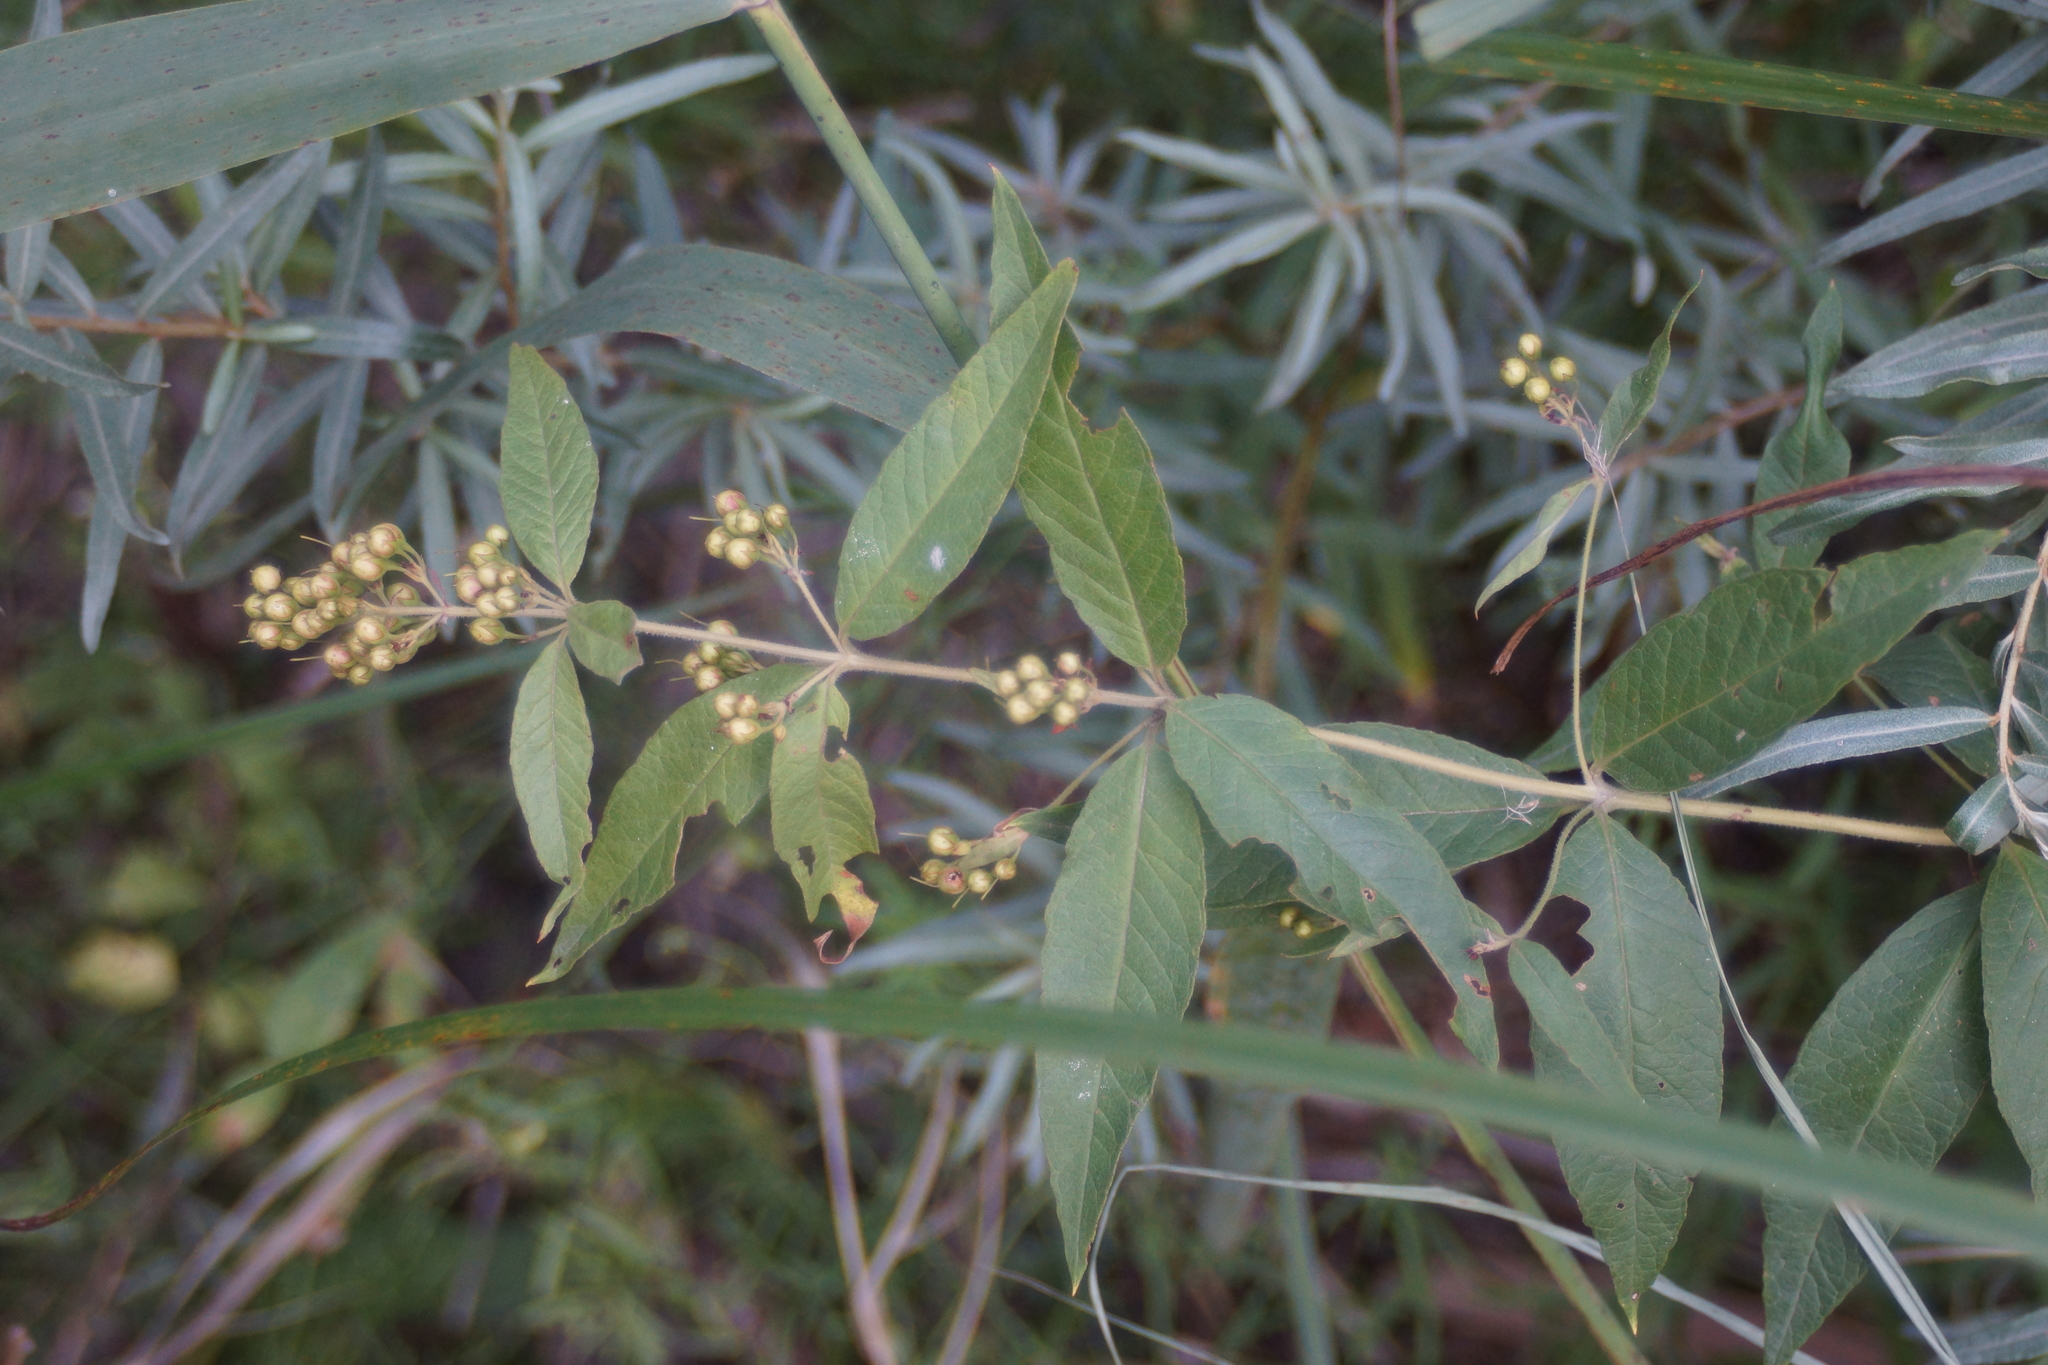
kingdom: Plantae
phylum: Tracheophyta
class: Magnoliopsida
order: Ericales
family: Primulaceae
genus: Lysimachia
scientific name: Lysimachia vulgaris
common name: Yellow loosestrife
